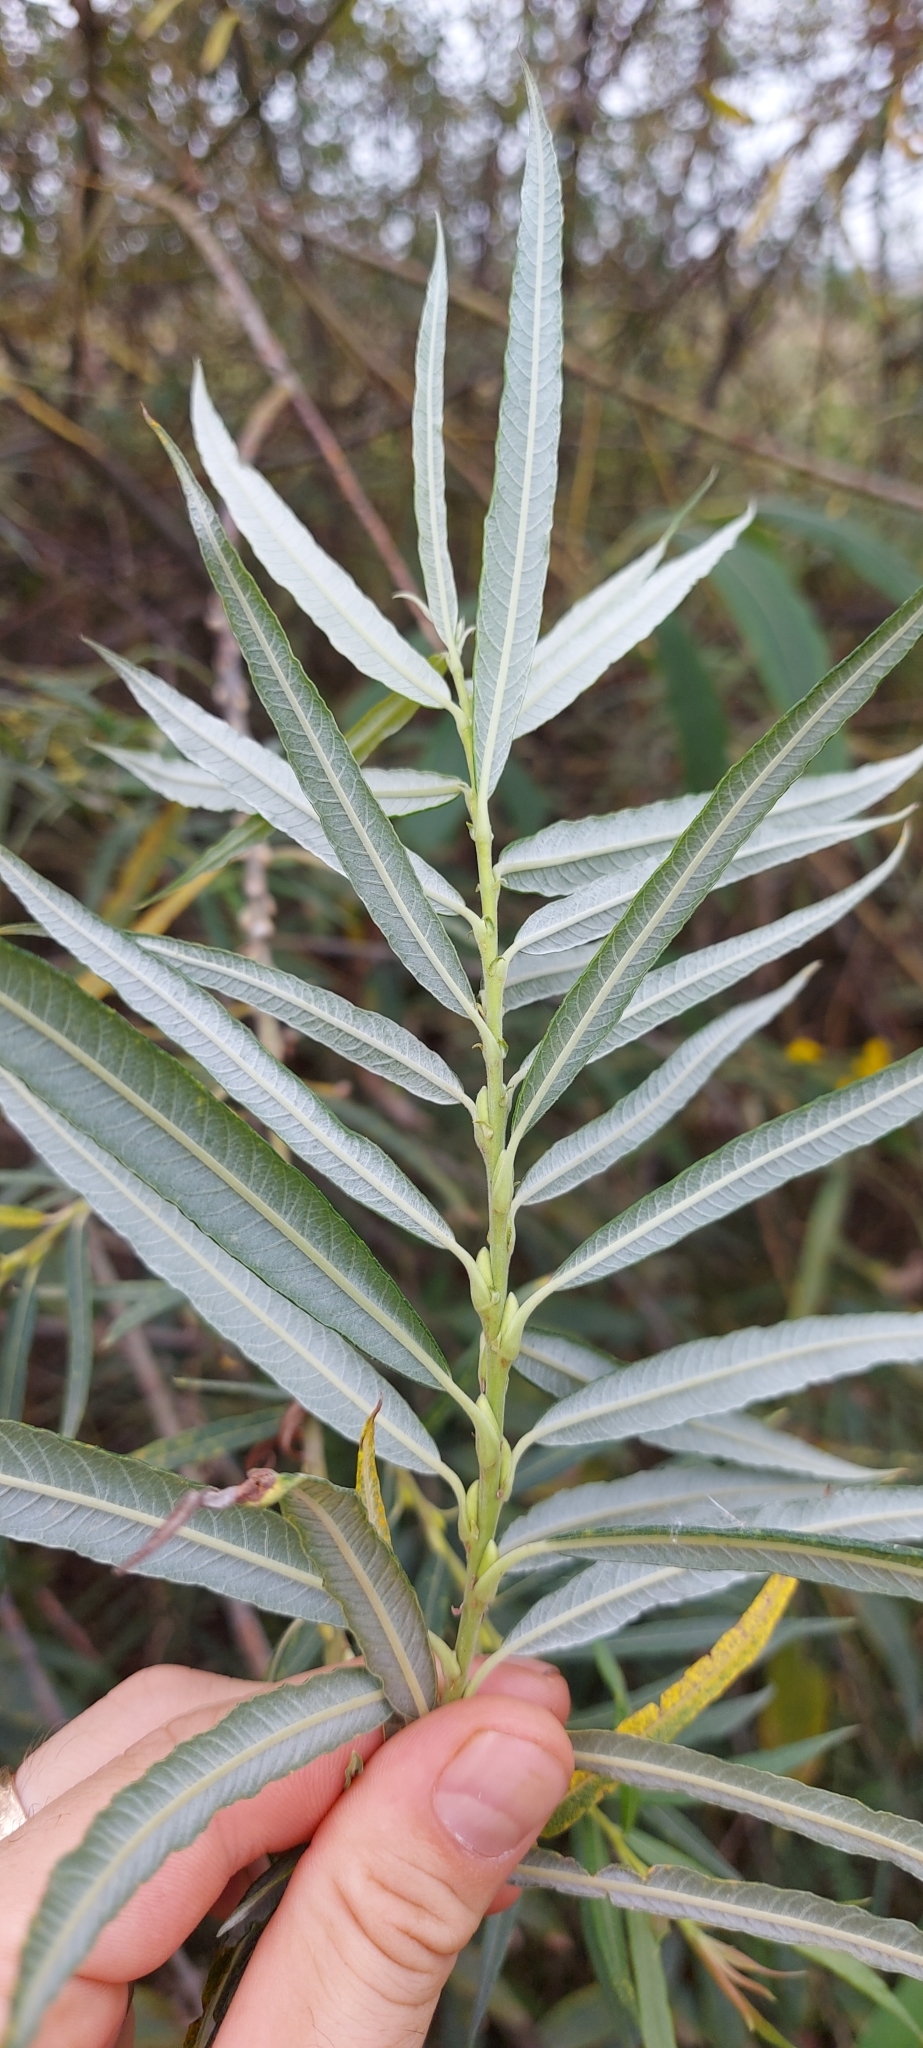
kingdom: Plantae
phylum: Tracheophyta
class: Magnoliopsida
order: Malpighiales
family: Salicaceae
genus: Salix
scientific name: Salix viminalis
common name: Osier
